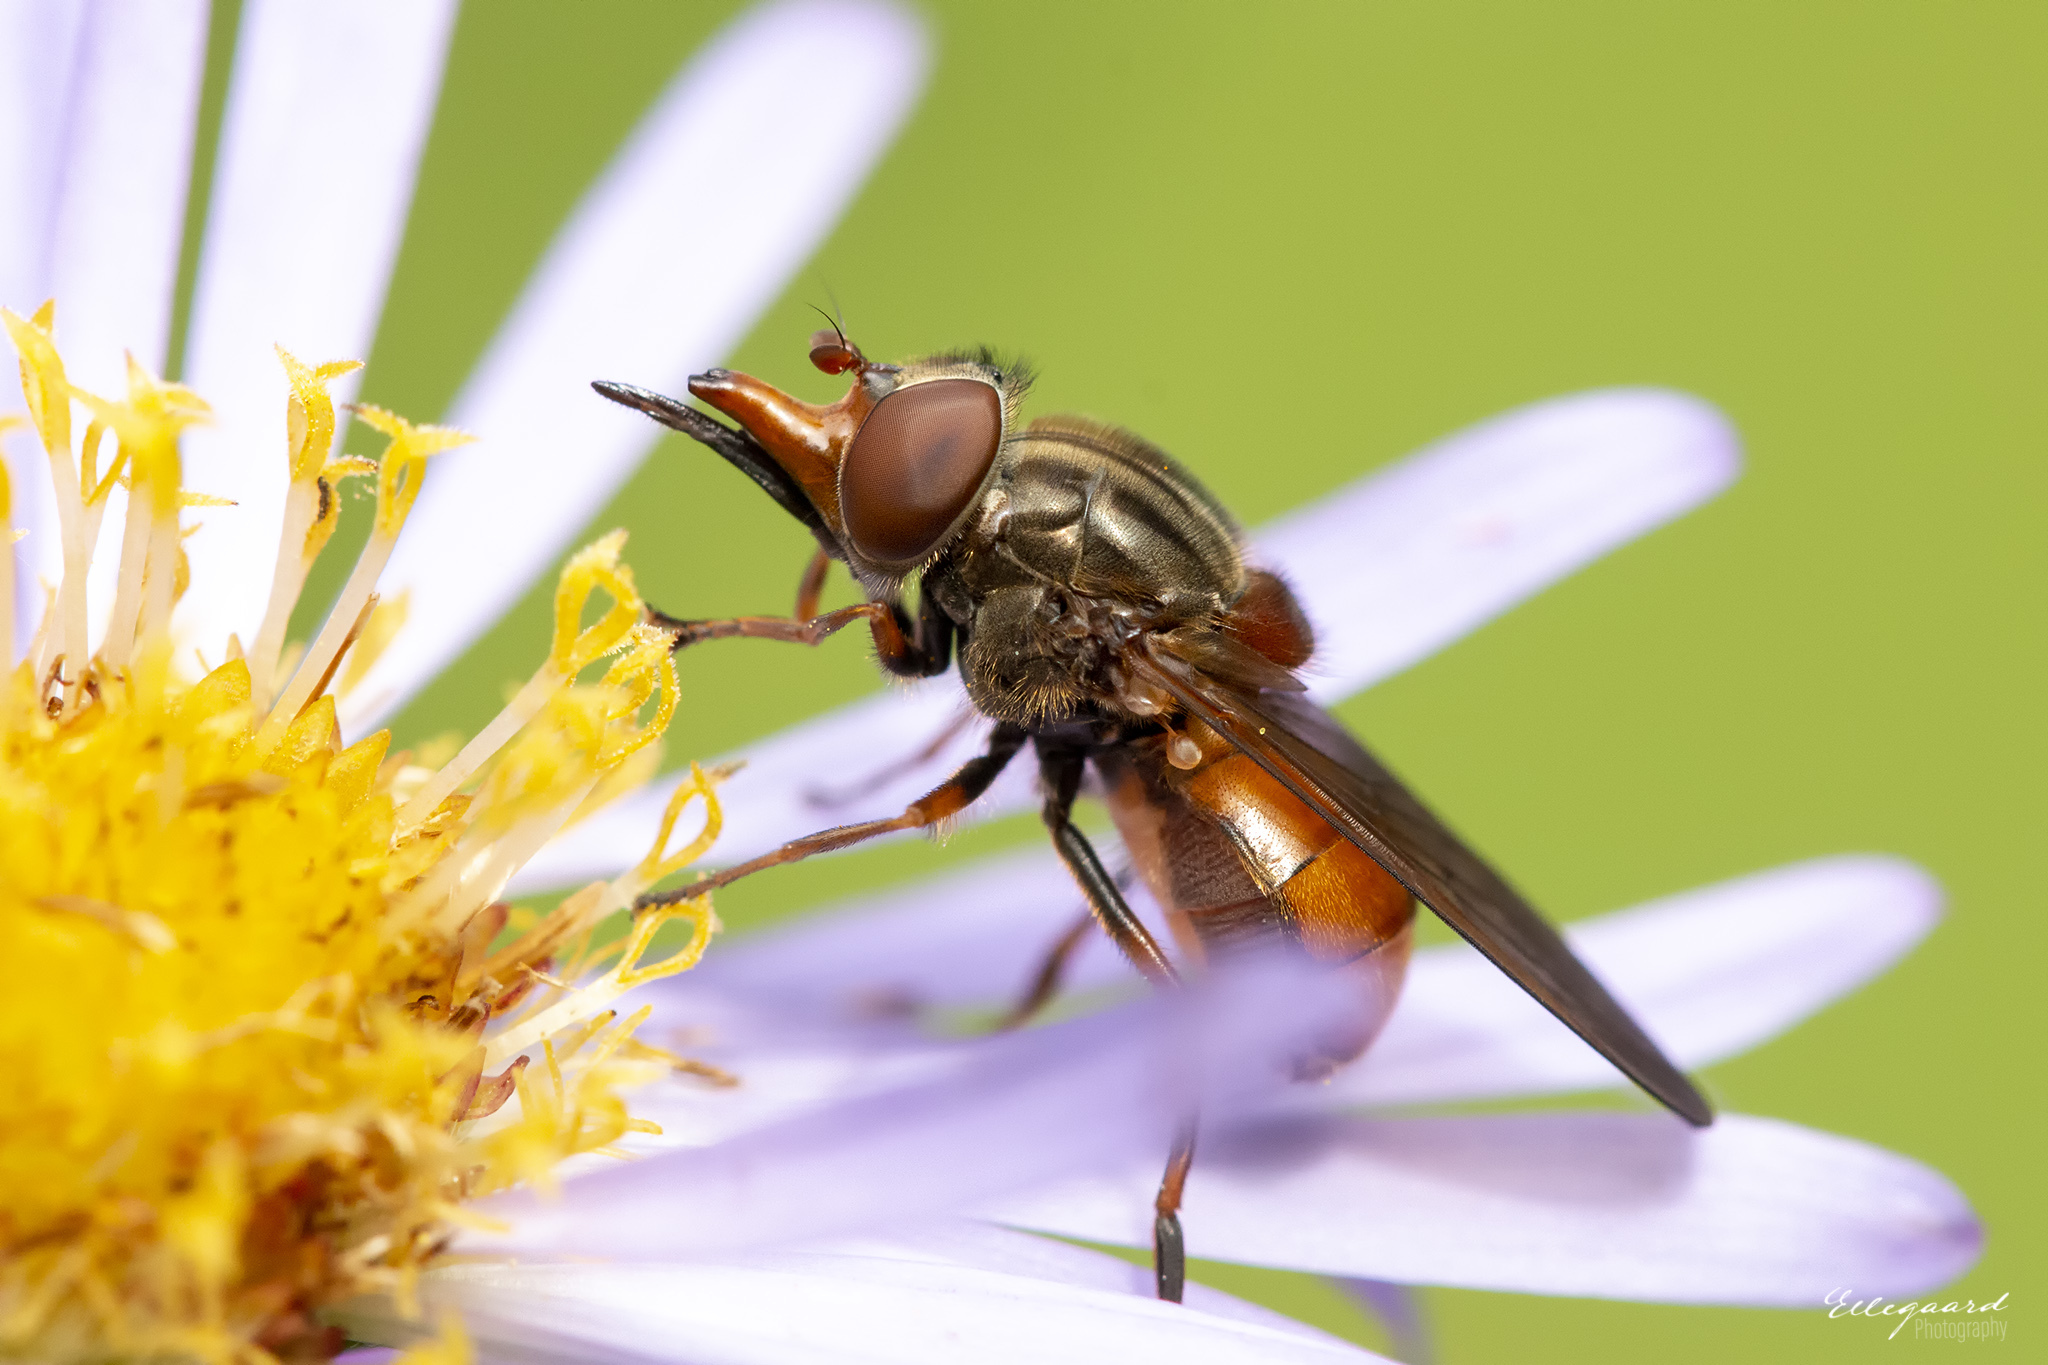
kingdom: Animalia
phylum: Arthropoda
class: Insecta
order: Diptera
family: Syrphidae
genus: Rhingia
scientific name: Rhingia campestris
